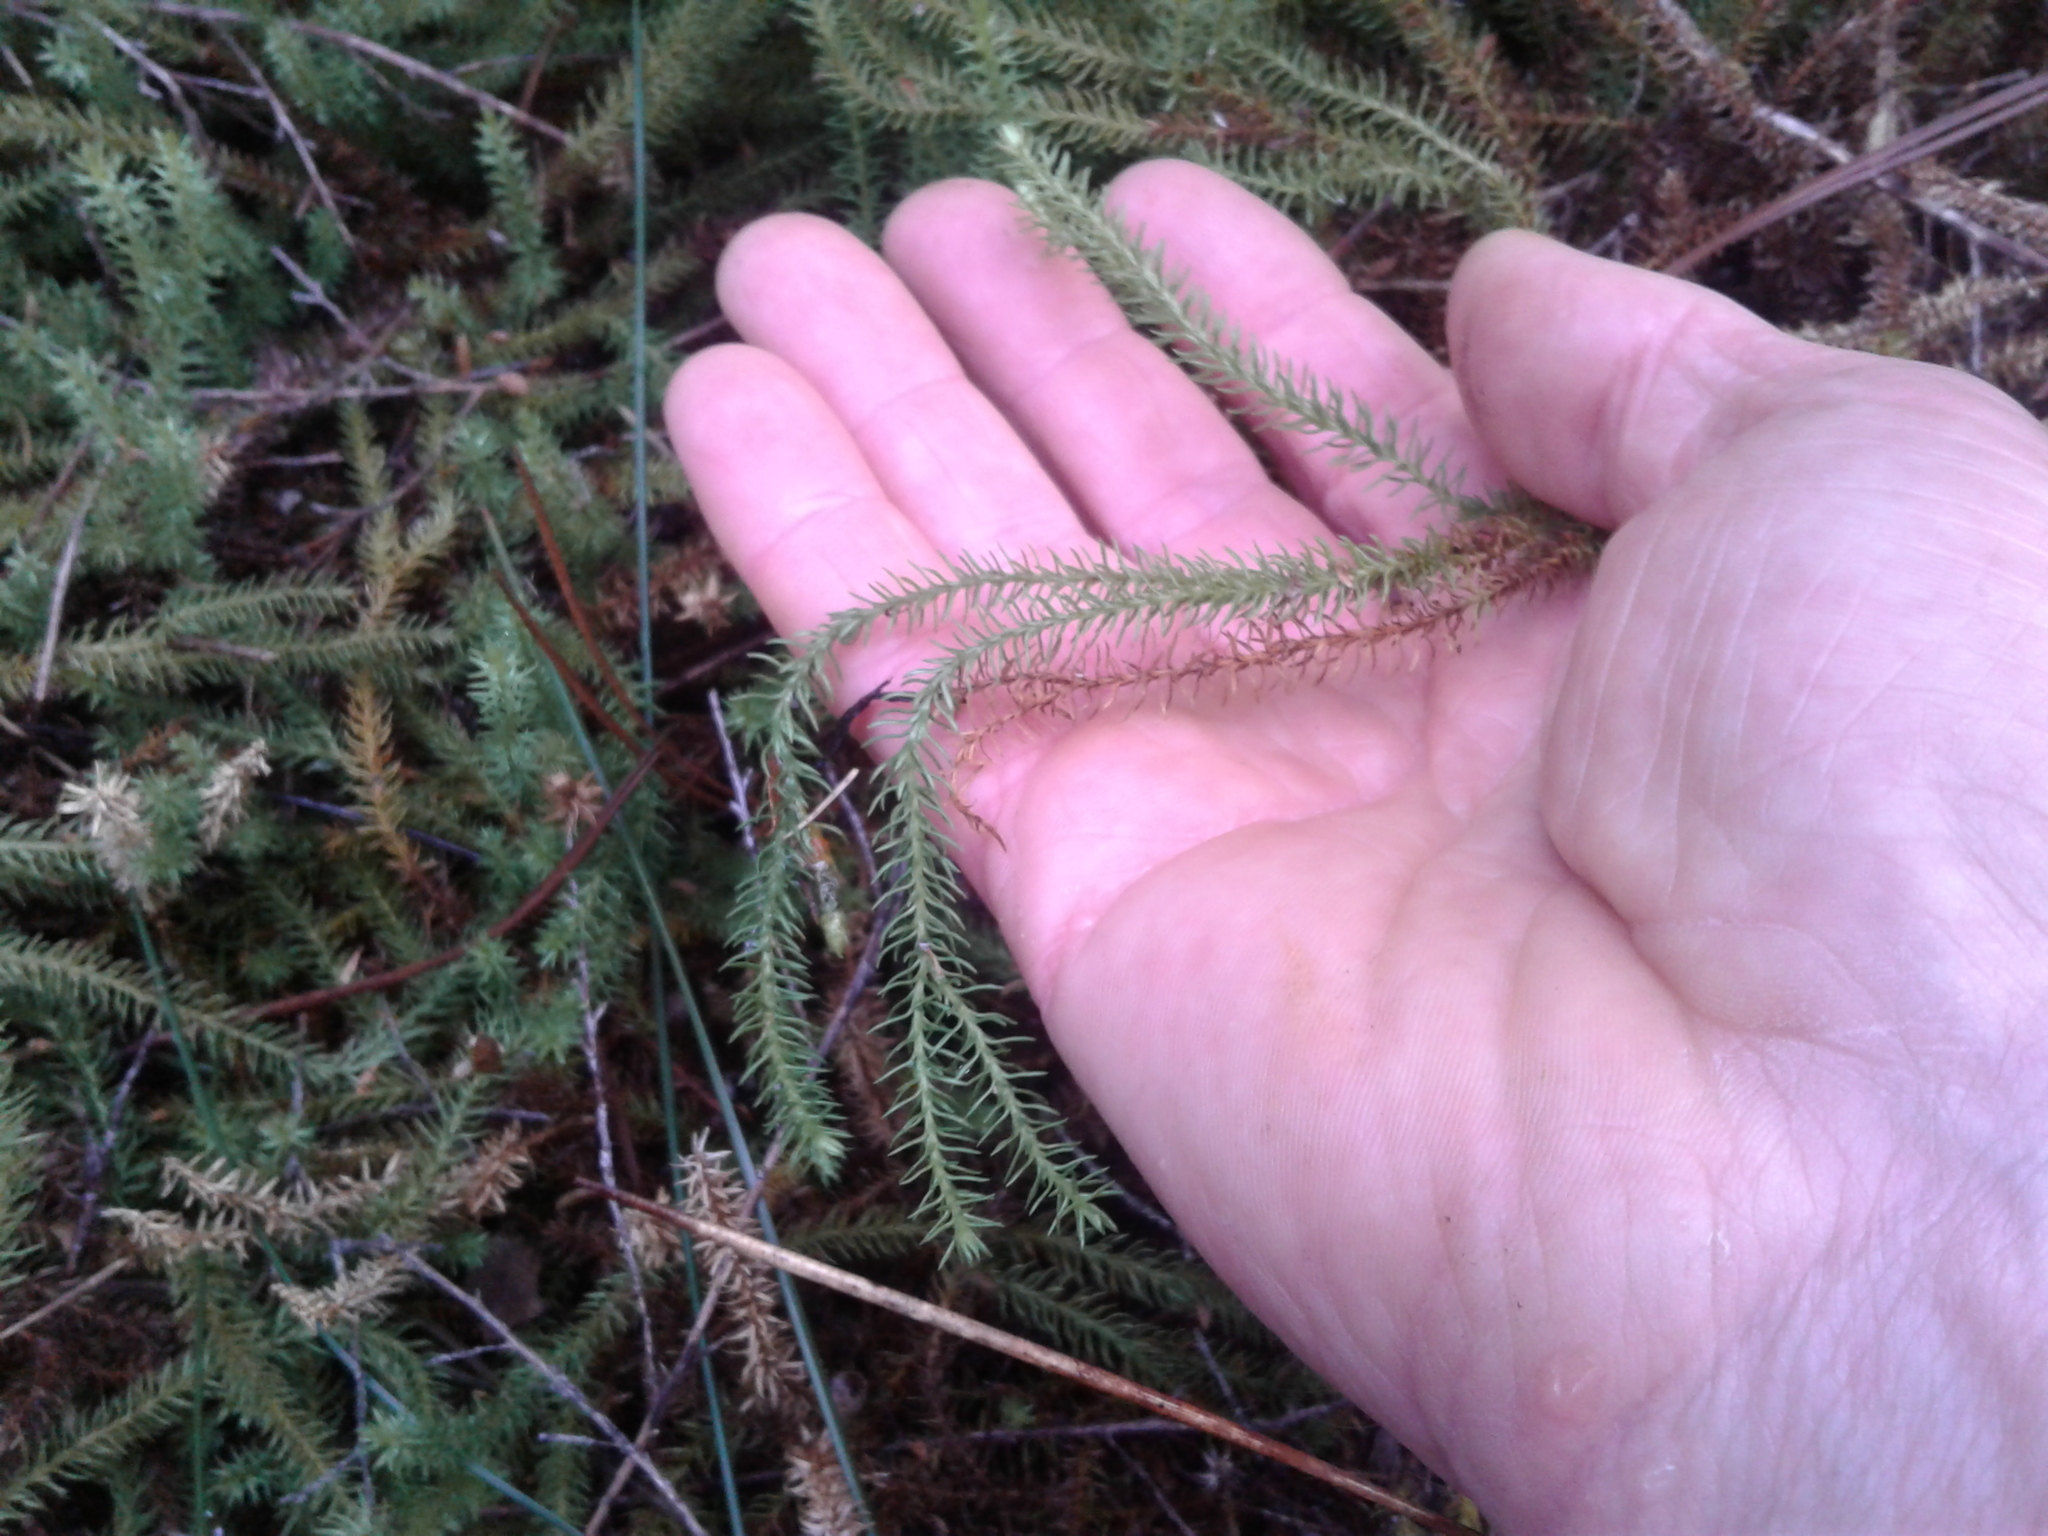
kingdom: Plantae
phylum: Tracheophyta
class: Lycopodiopsida
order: Lycopodiales
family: Lycopodiaceae
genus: Lateristachys
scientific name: Lateristachys lateralis
